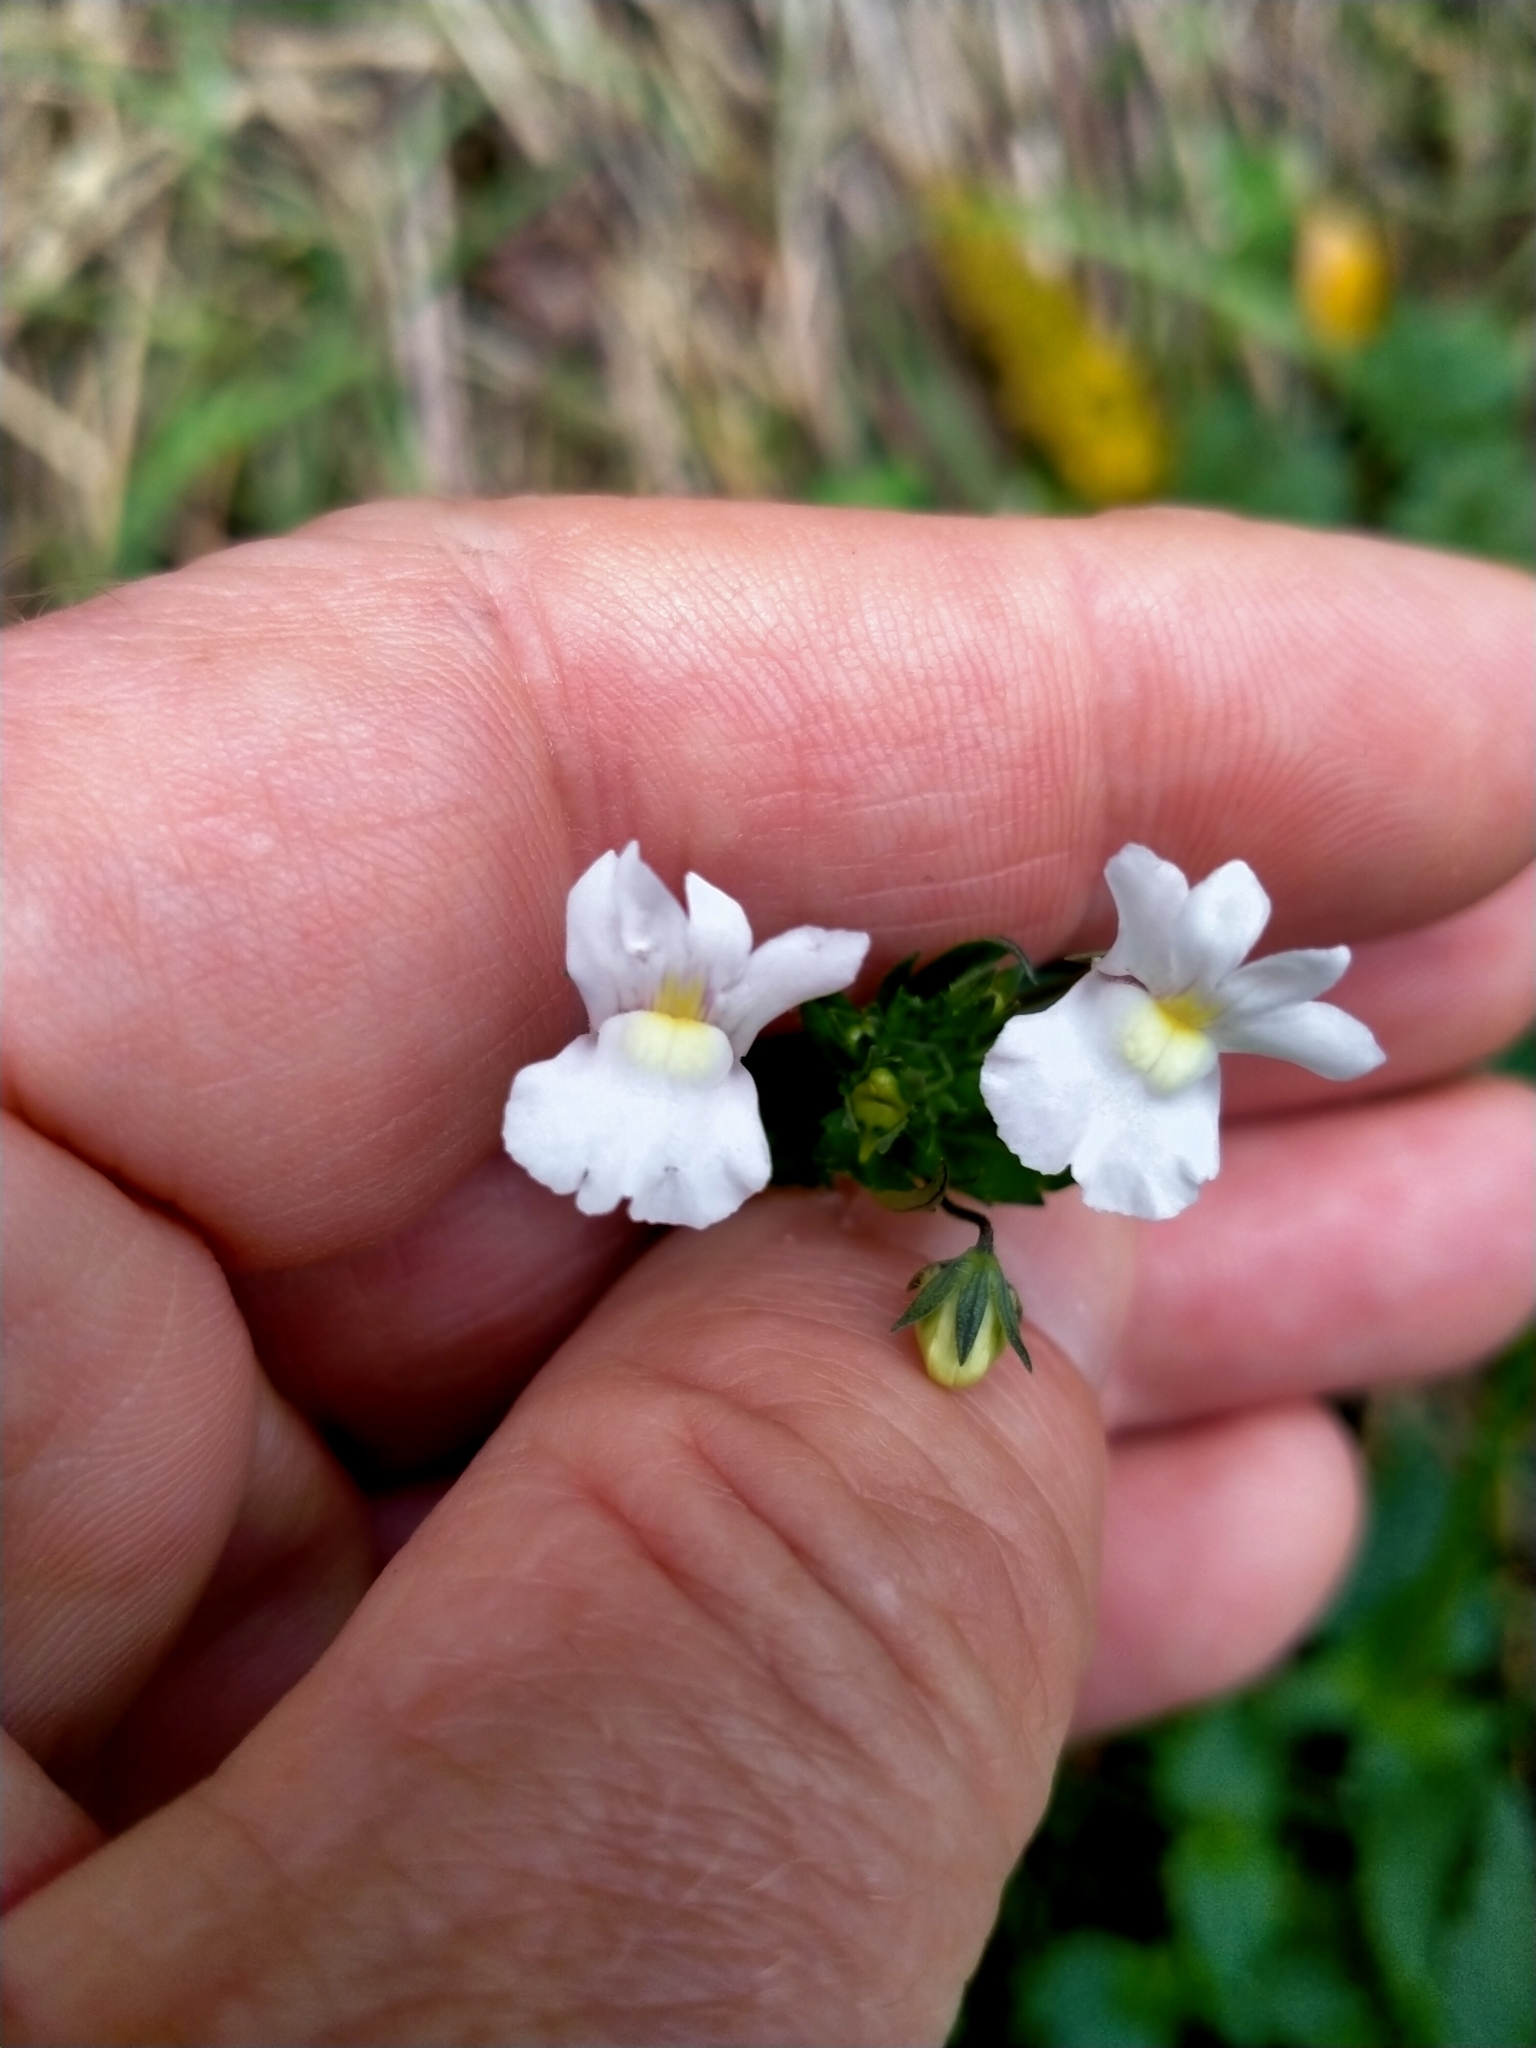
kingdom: Plantae
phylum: Tracheophyta
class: Magnoliopsida
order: Lamiales
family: Scrophulariaceae
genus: Nemesia
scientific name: Nemesia floribunda
